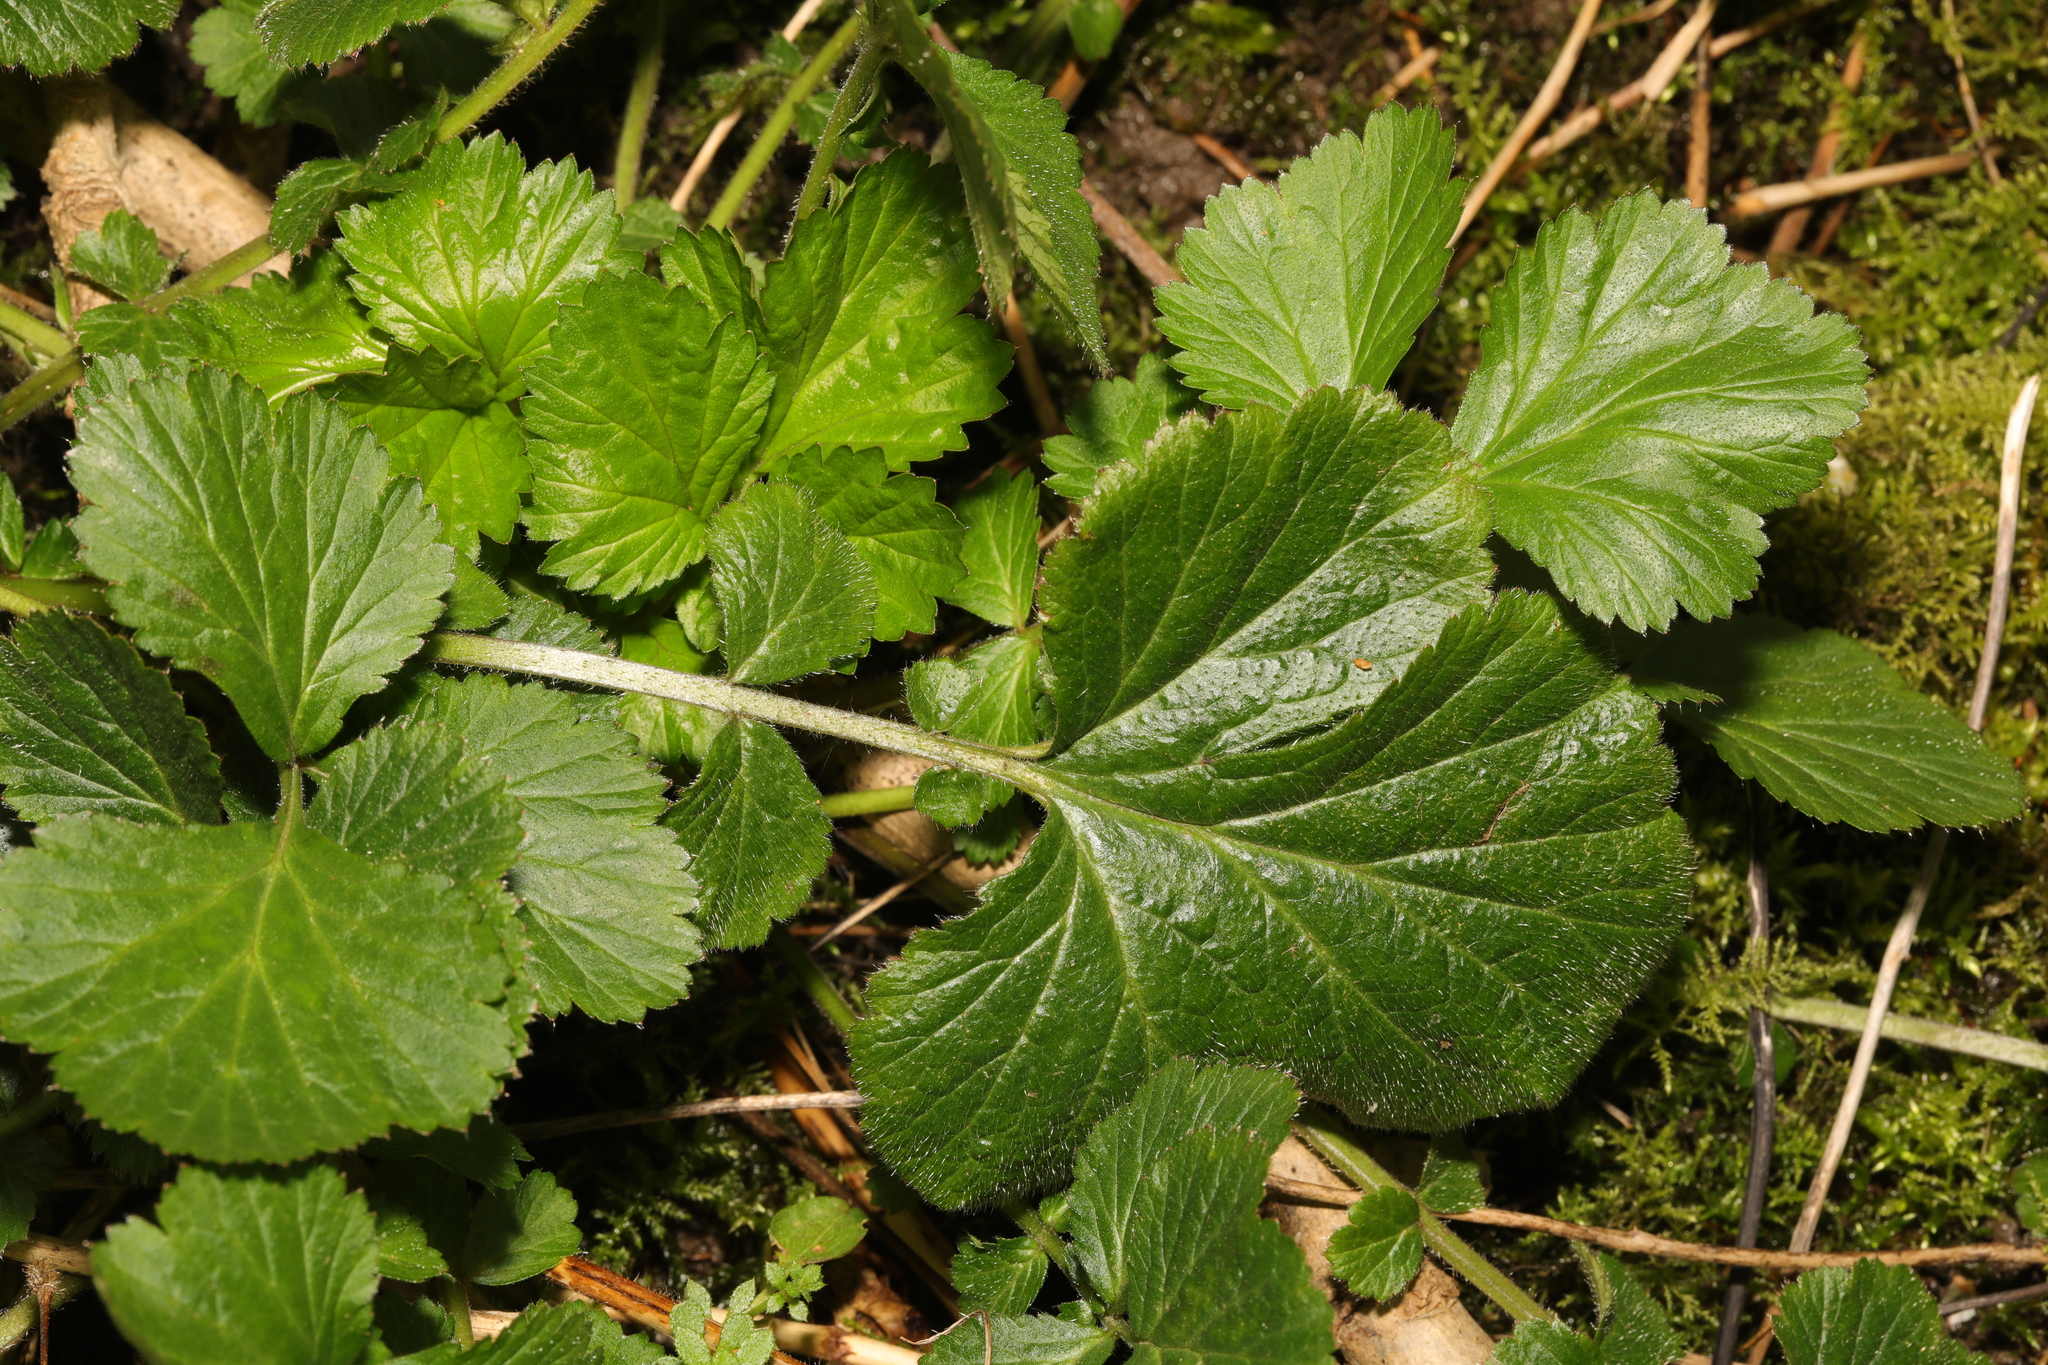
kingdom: Plantae
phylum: Tracheophyta
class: Magnoliopsida
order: Rosales
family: Rosaceae
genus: Geum
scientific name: Geum urbanum
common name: Wood avens
